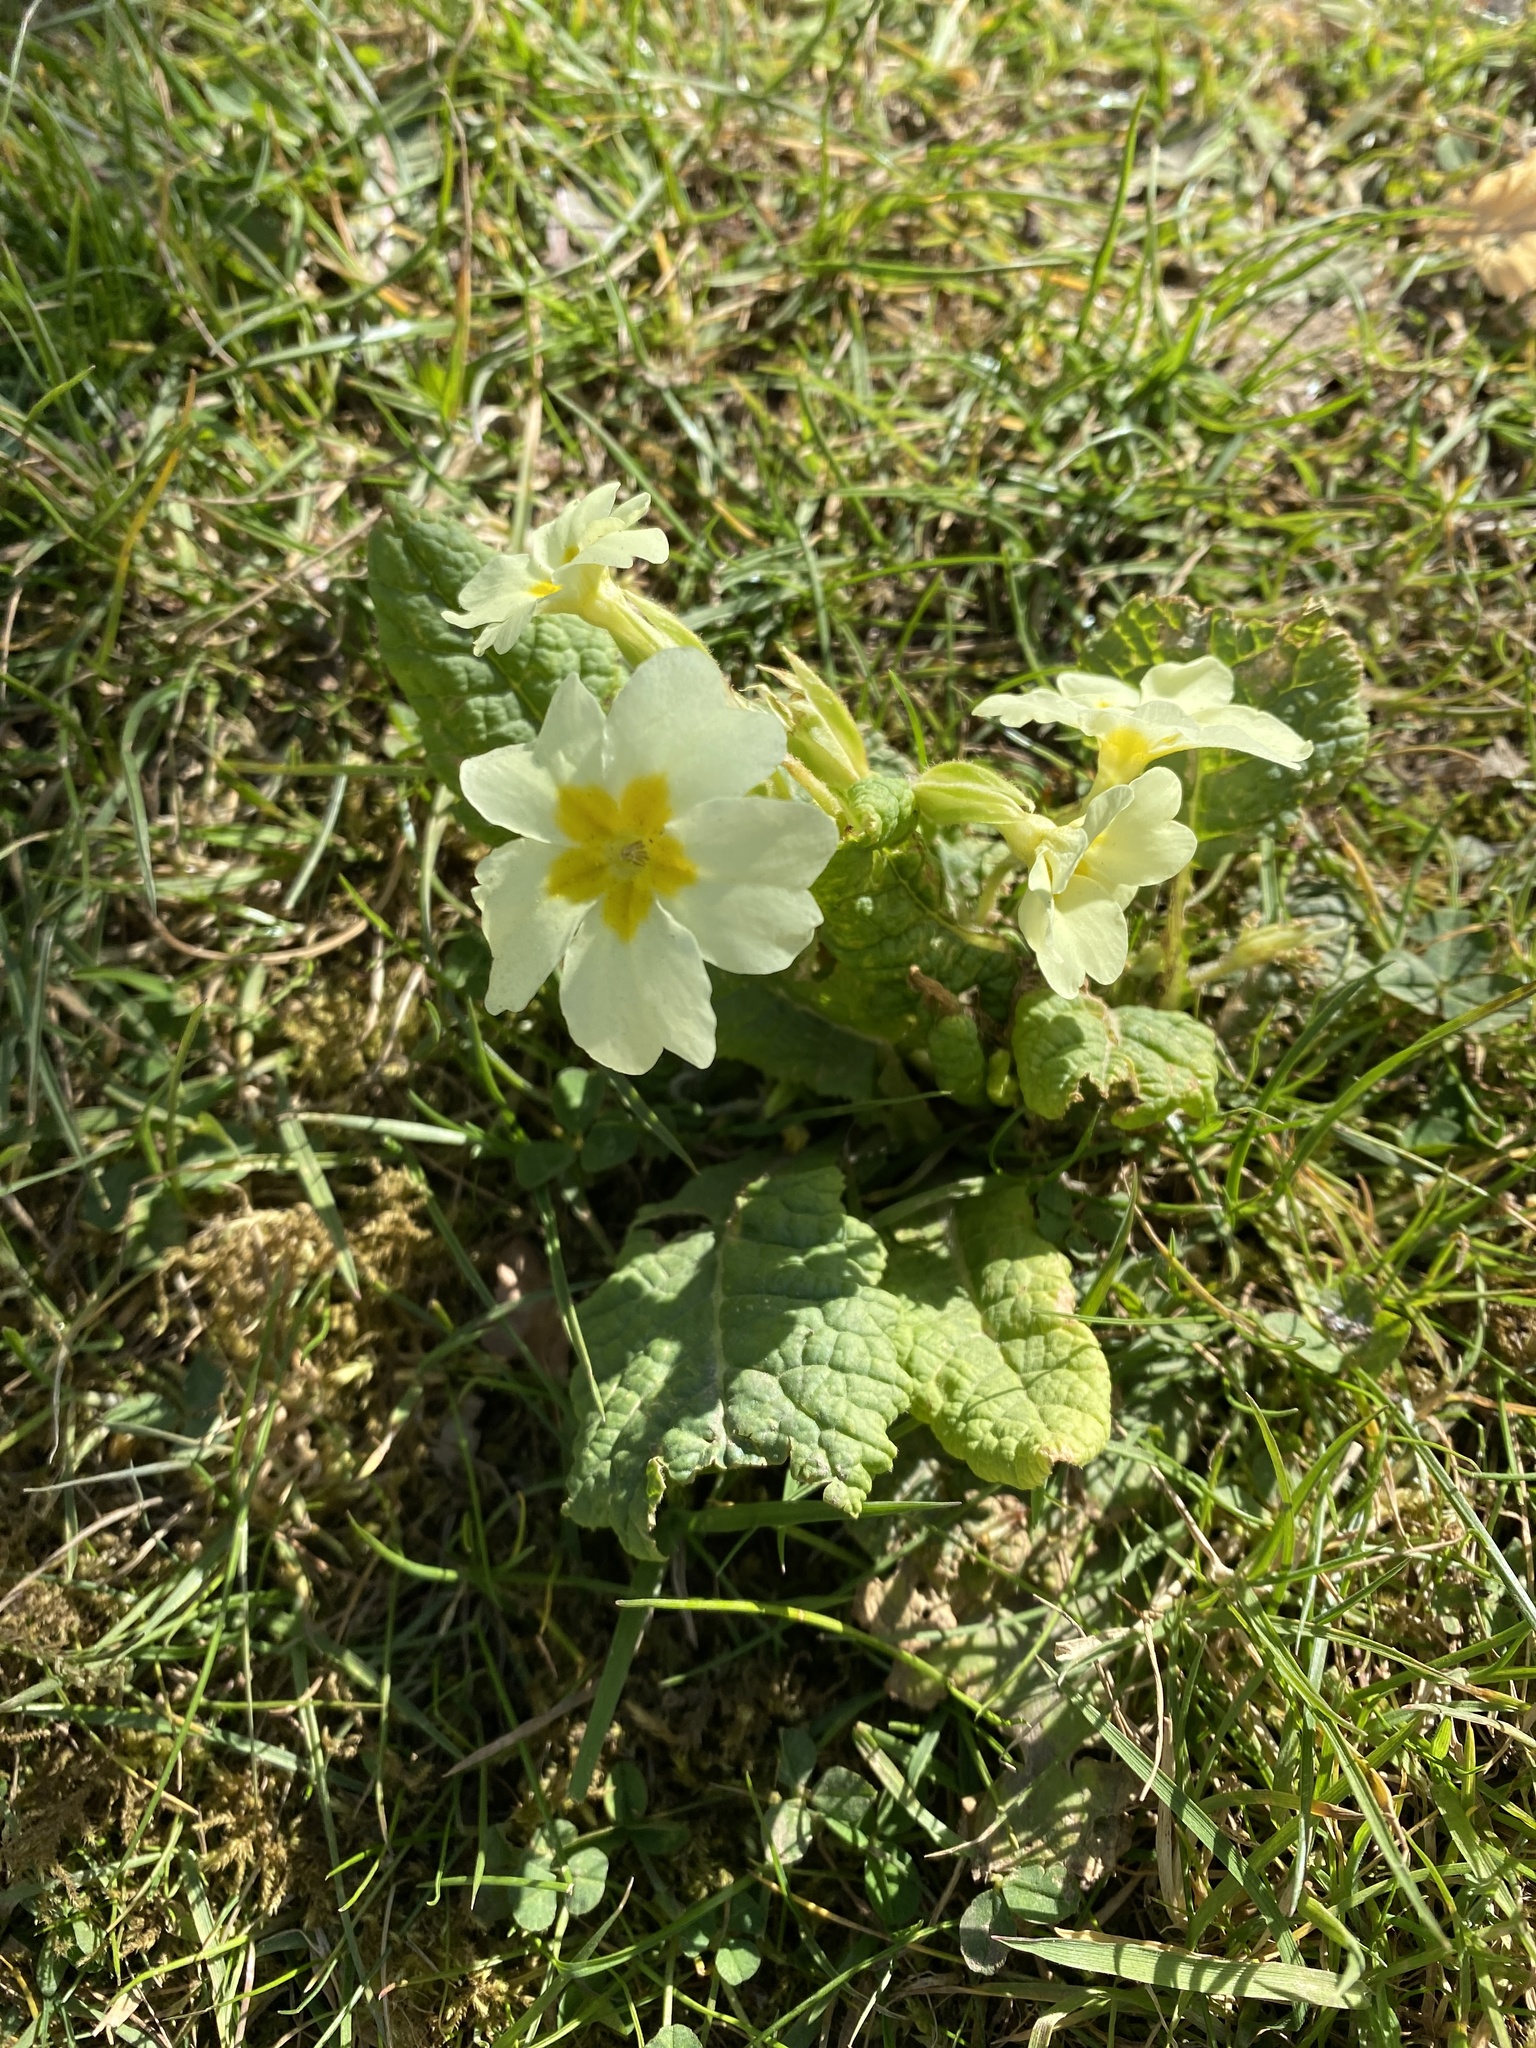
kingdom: Plantae
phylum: Tracheophyta
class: Magnoliopsida
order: Ericales
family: Primulaceae
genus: Primula
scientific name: Primula vulgaris
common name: Primrose
